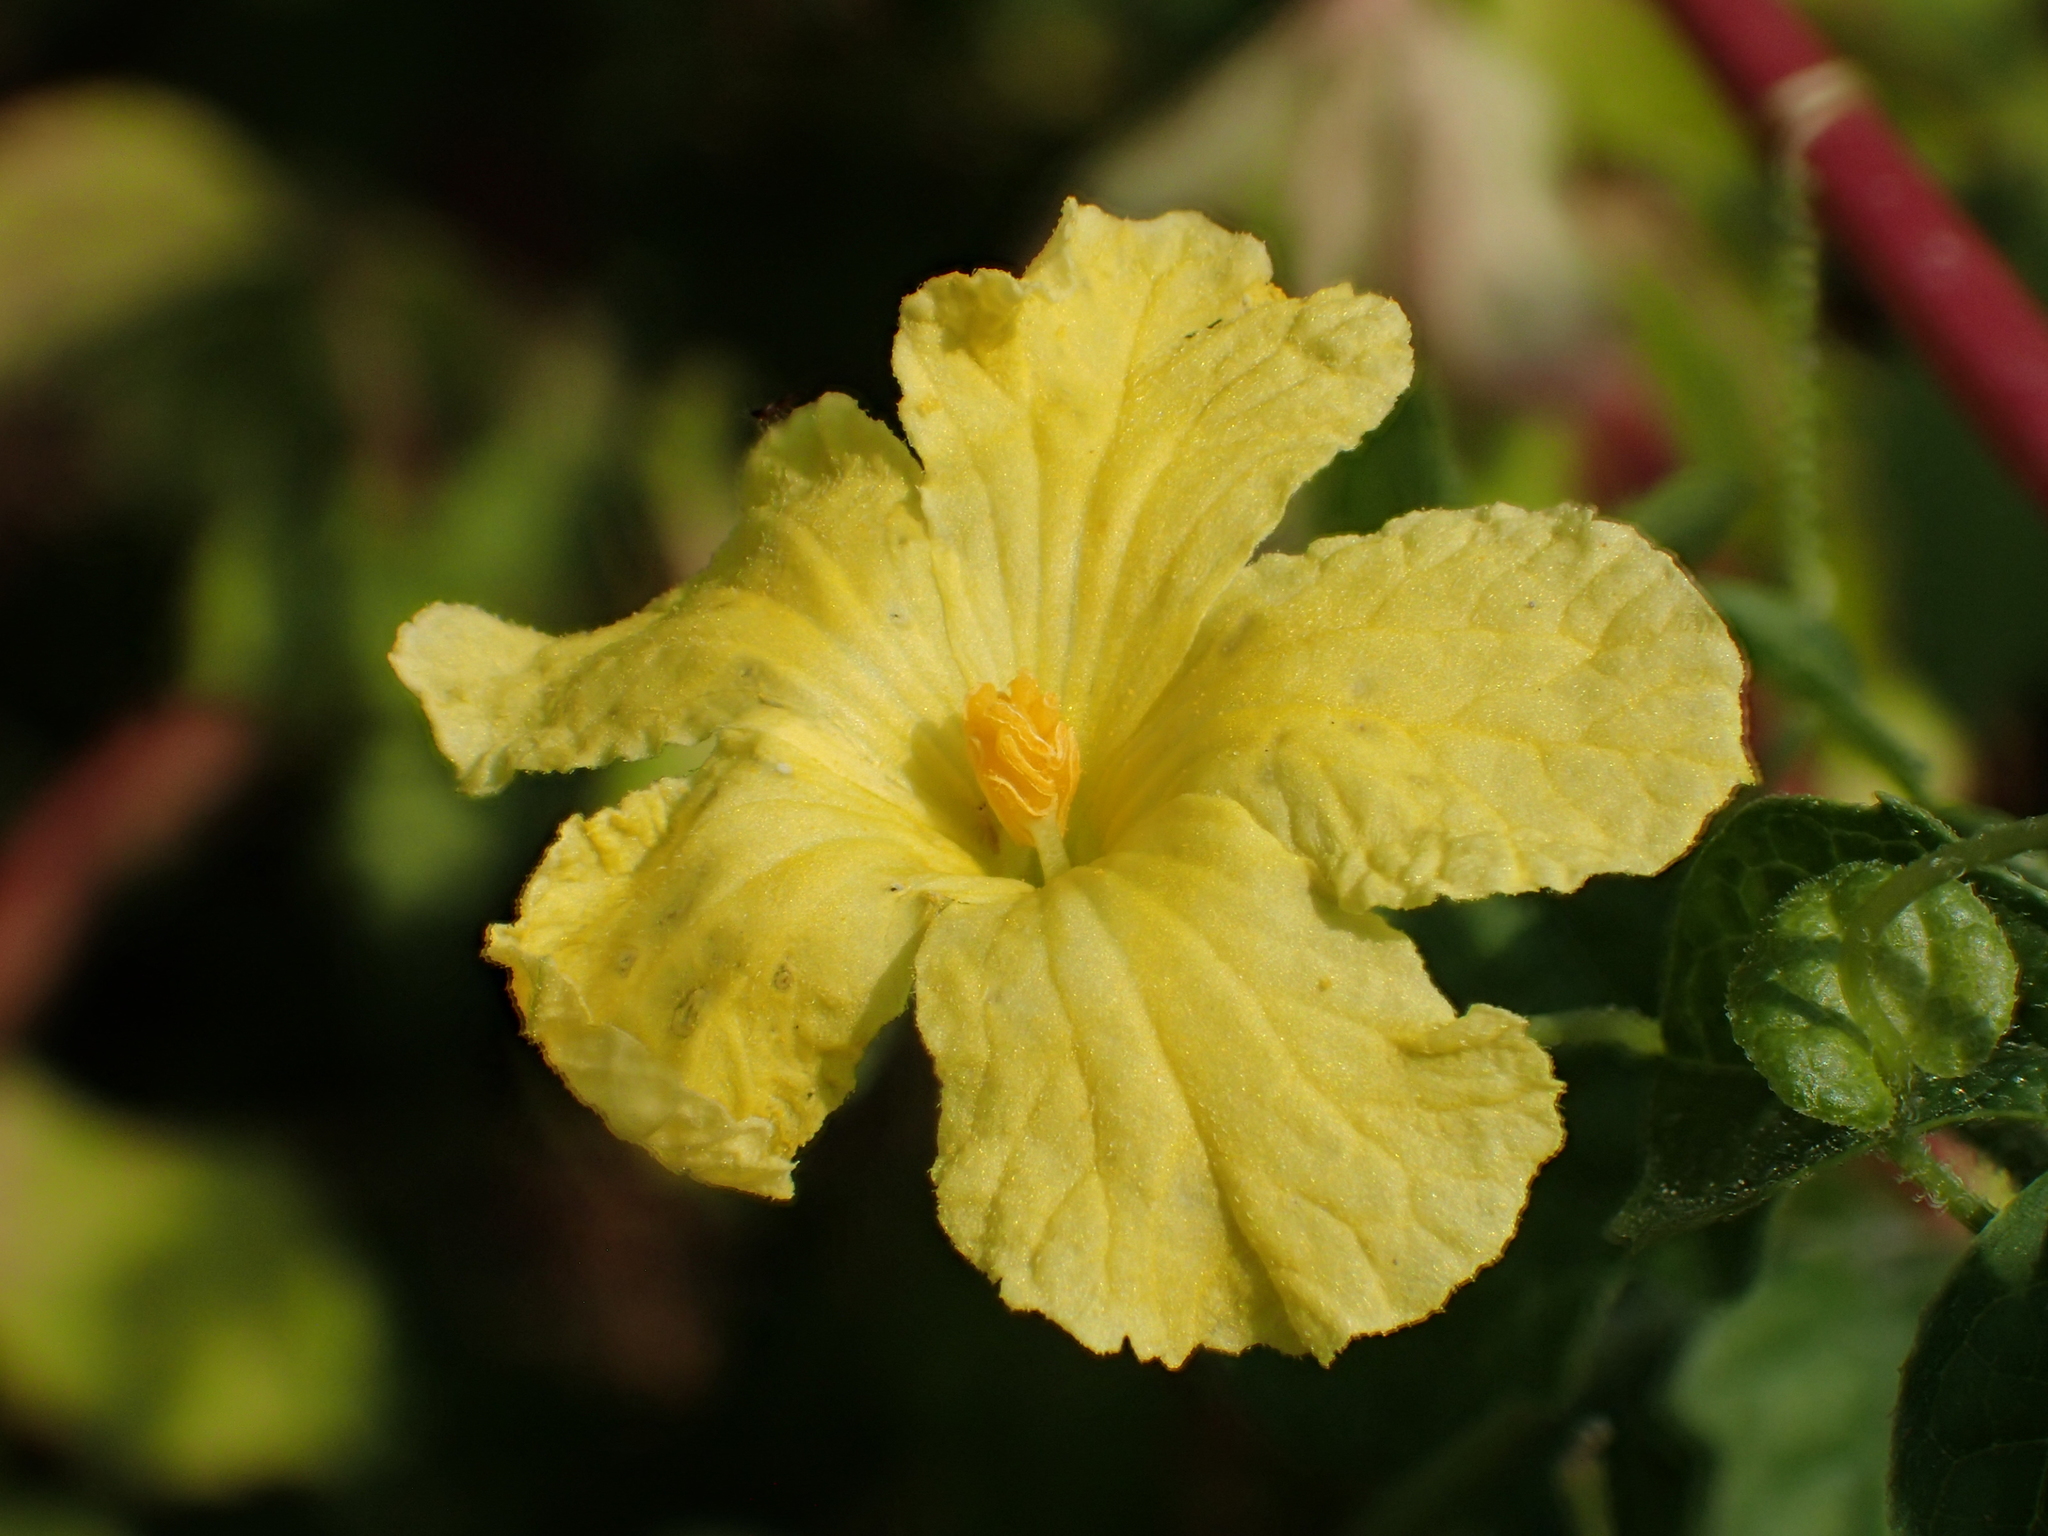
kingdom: Plantae
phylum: Tracheophyta
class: Magnoliopsida
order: Cucurbitales
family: Cucurbitaceae
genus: Momordica
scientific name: Momordica charantia
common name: Balsampear
